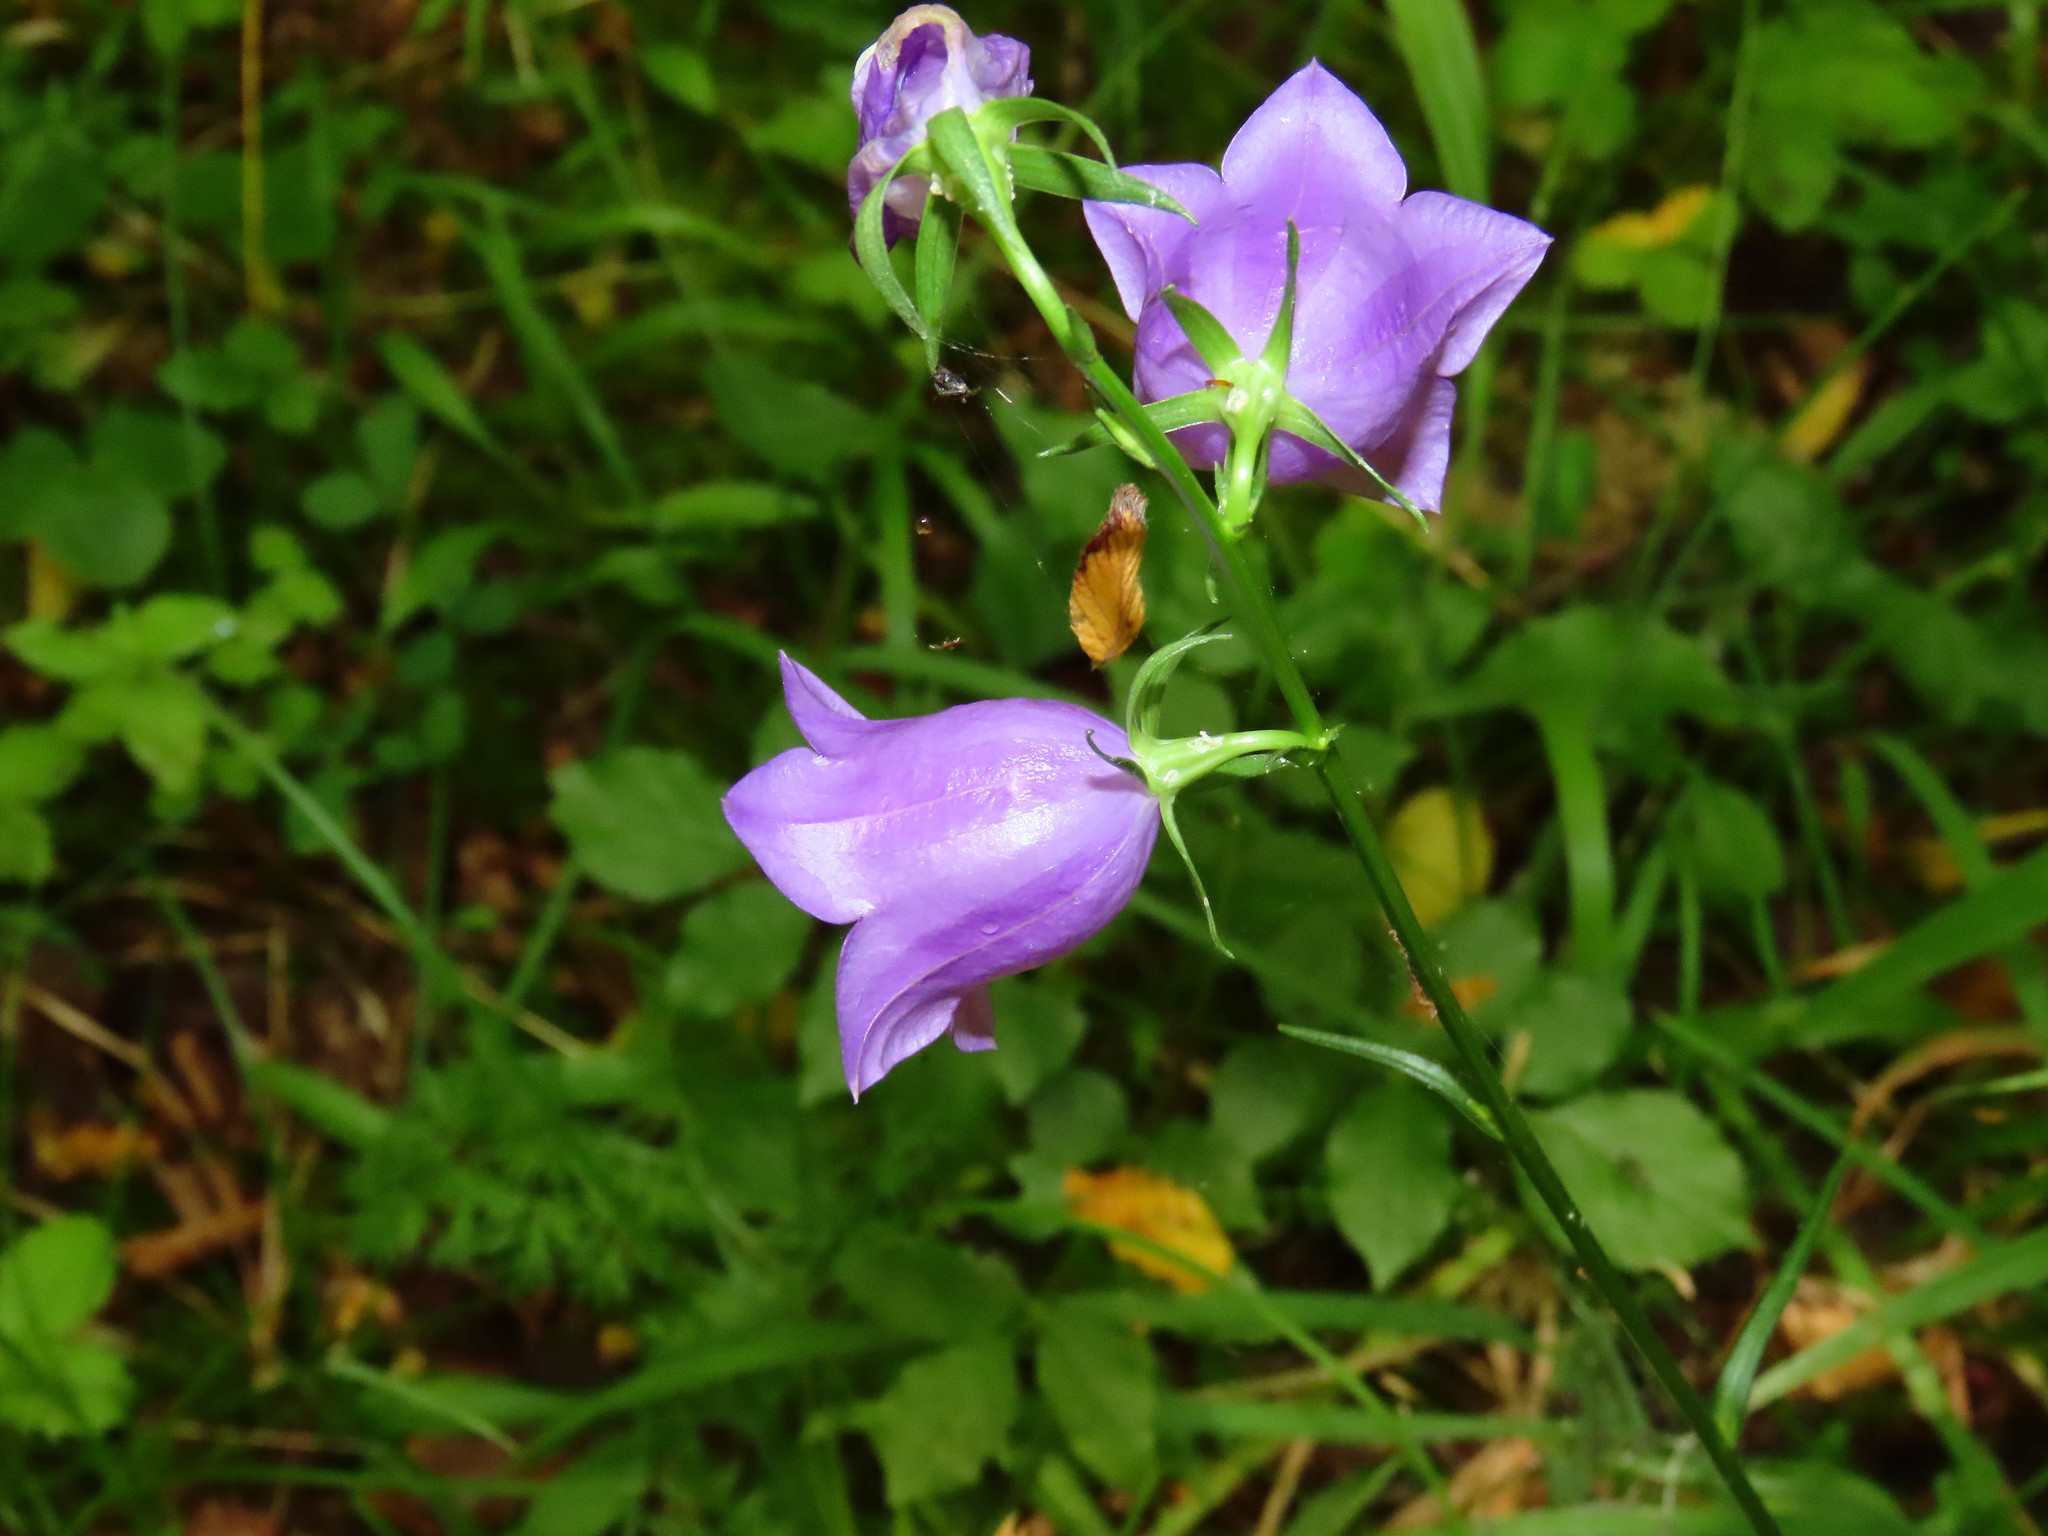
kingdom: Plantae
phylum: Tracheophyta
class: Magnoliopsida
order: Asterales
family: Campanulaceae
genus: Campanula
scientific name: Campanula persicifolia
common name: Peach-leaved bellflower
